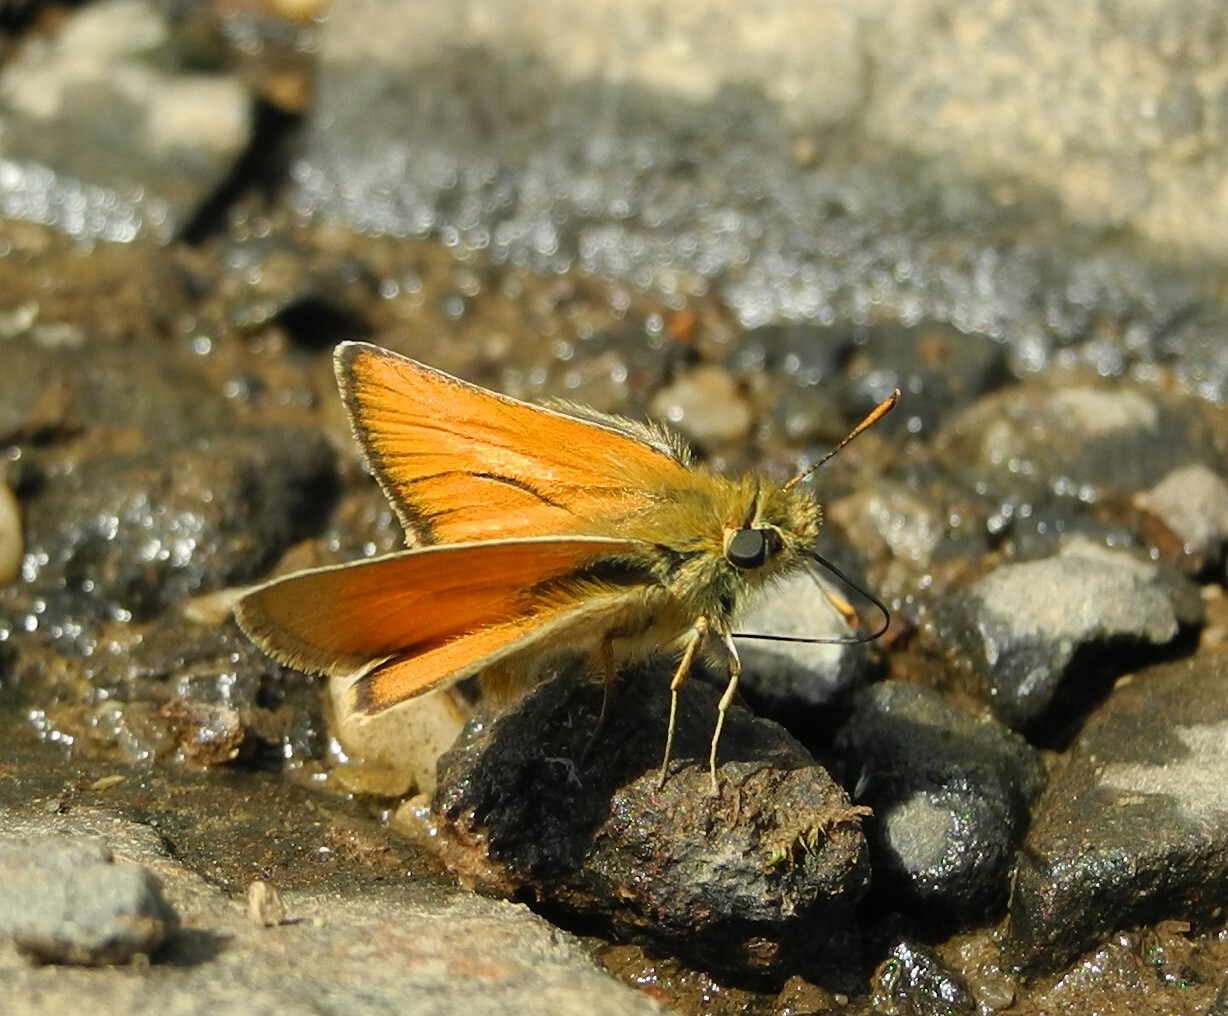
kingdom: Animalia
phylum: Arthropoda
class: Insecta
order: Lepidoptera
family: Hesperiidae
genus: Thymelicus
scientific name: Thymelicus sylvestris
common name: Small skipper
